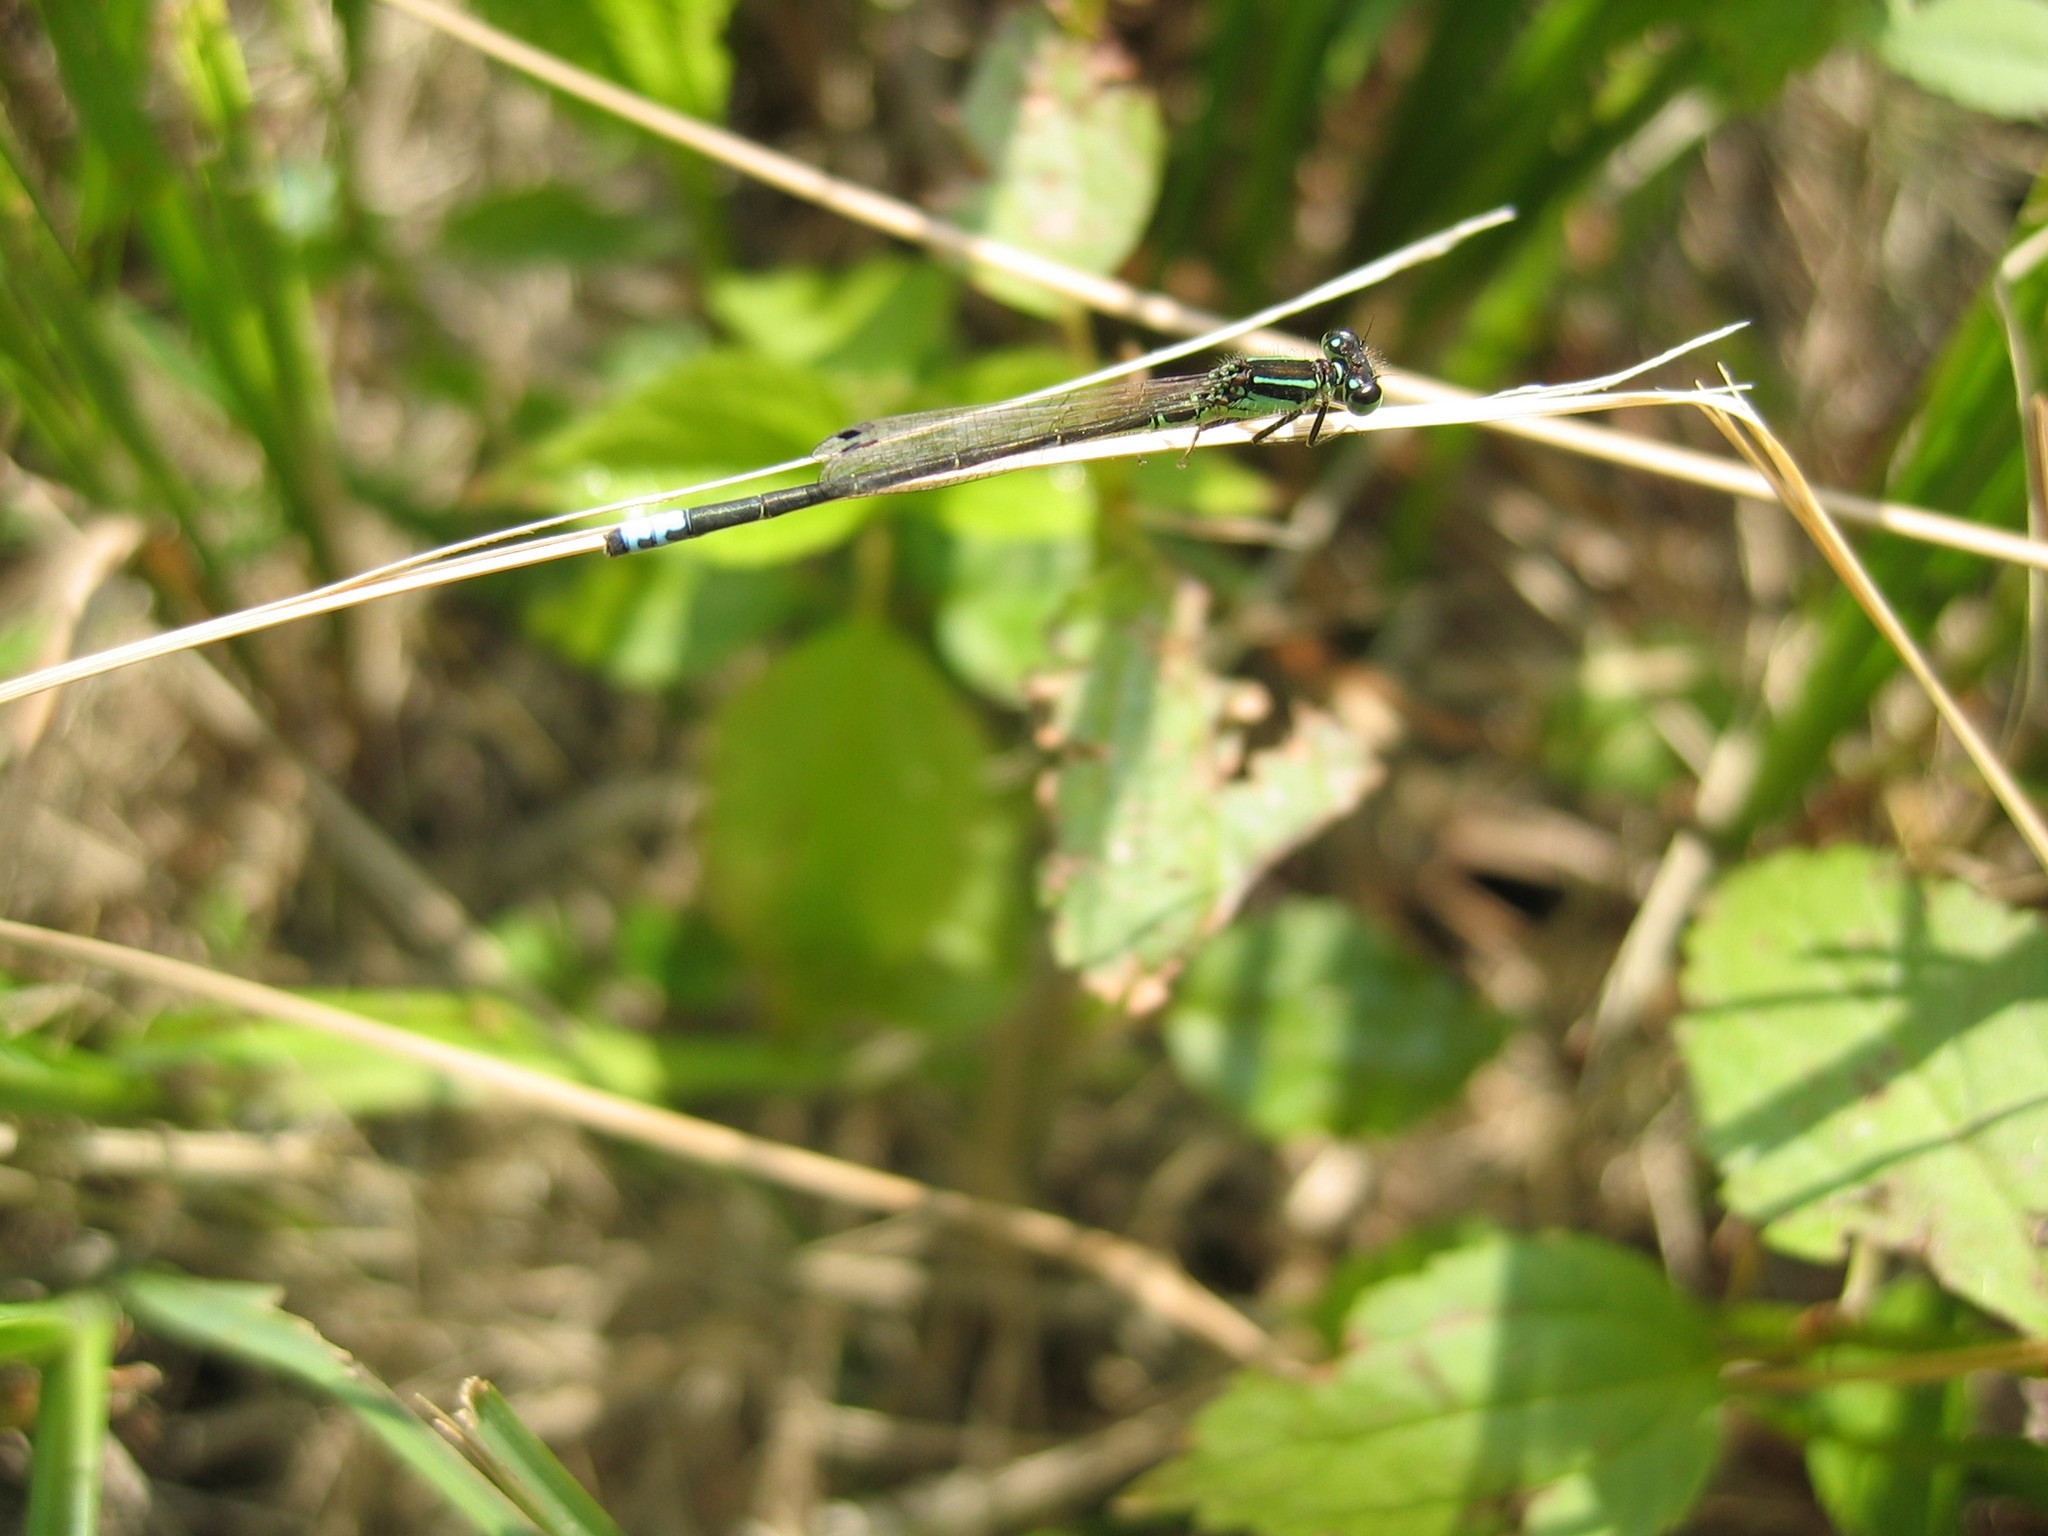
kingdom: Animalia
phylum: Arthropoda
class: Insecta
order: Odonata
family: Coenagrionidae
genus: Ischnura
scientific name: Ischnura verticalis
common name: Eastern forktail
